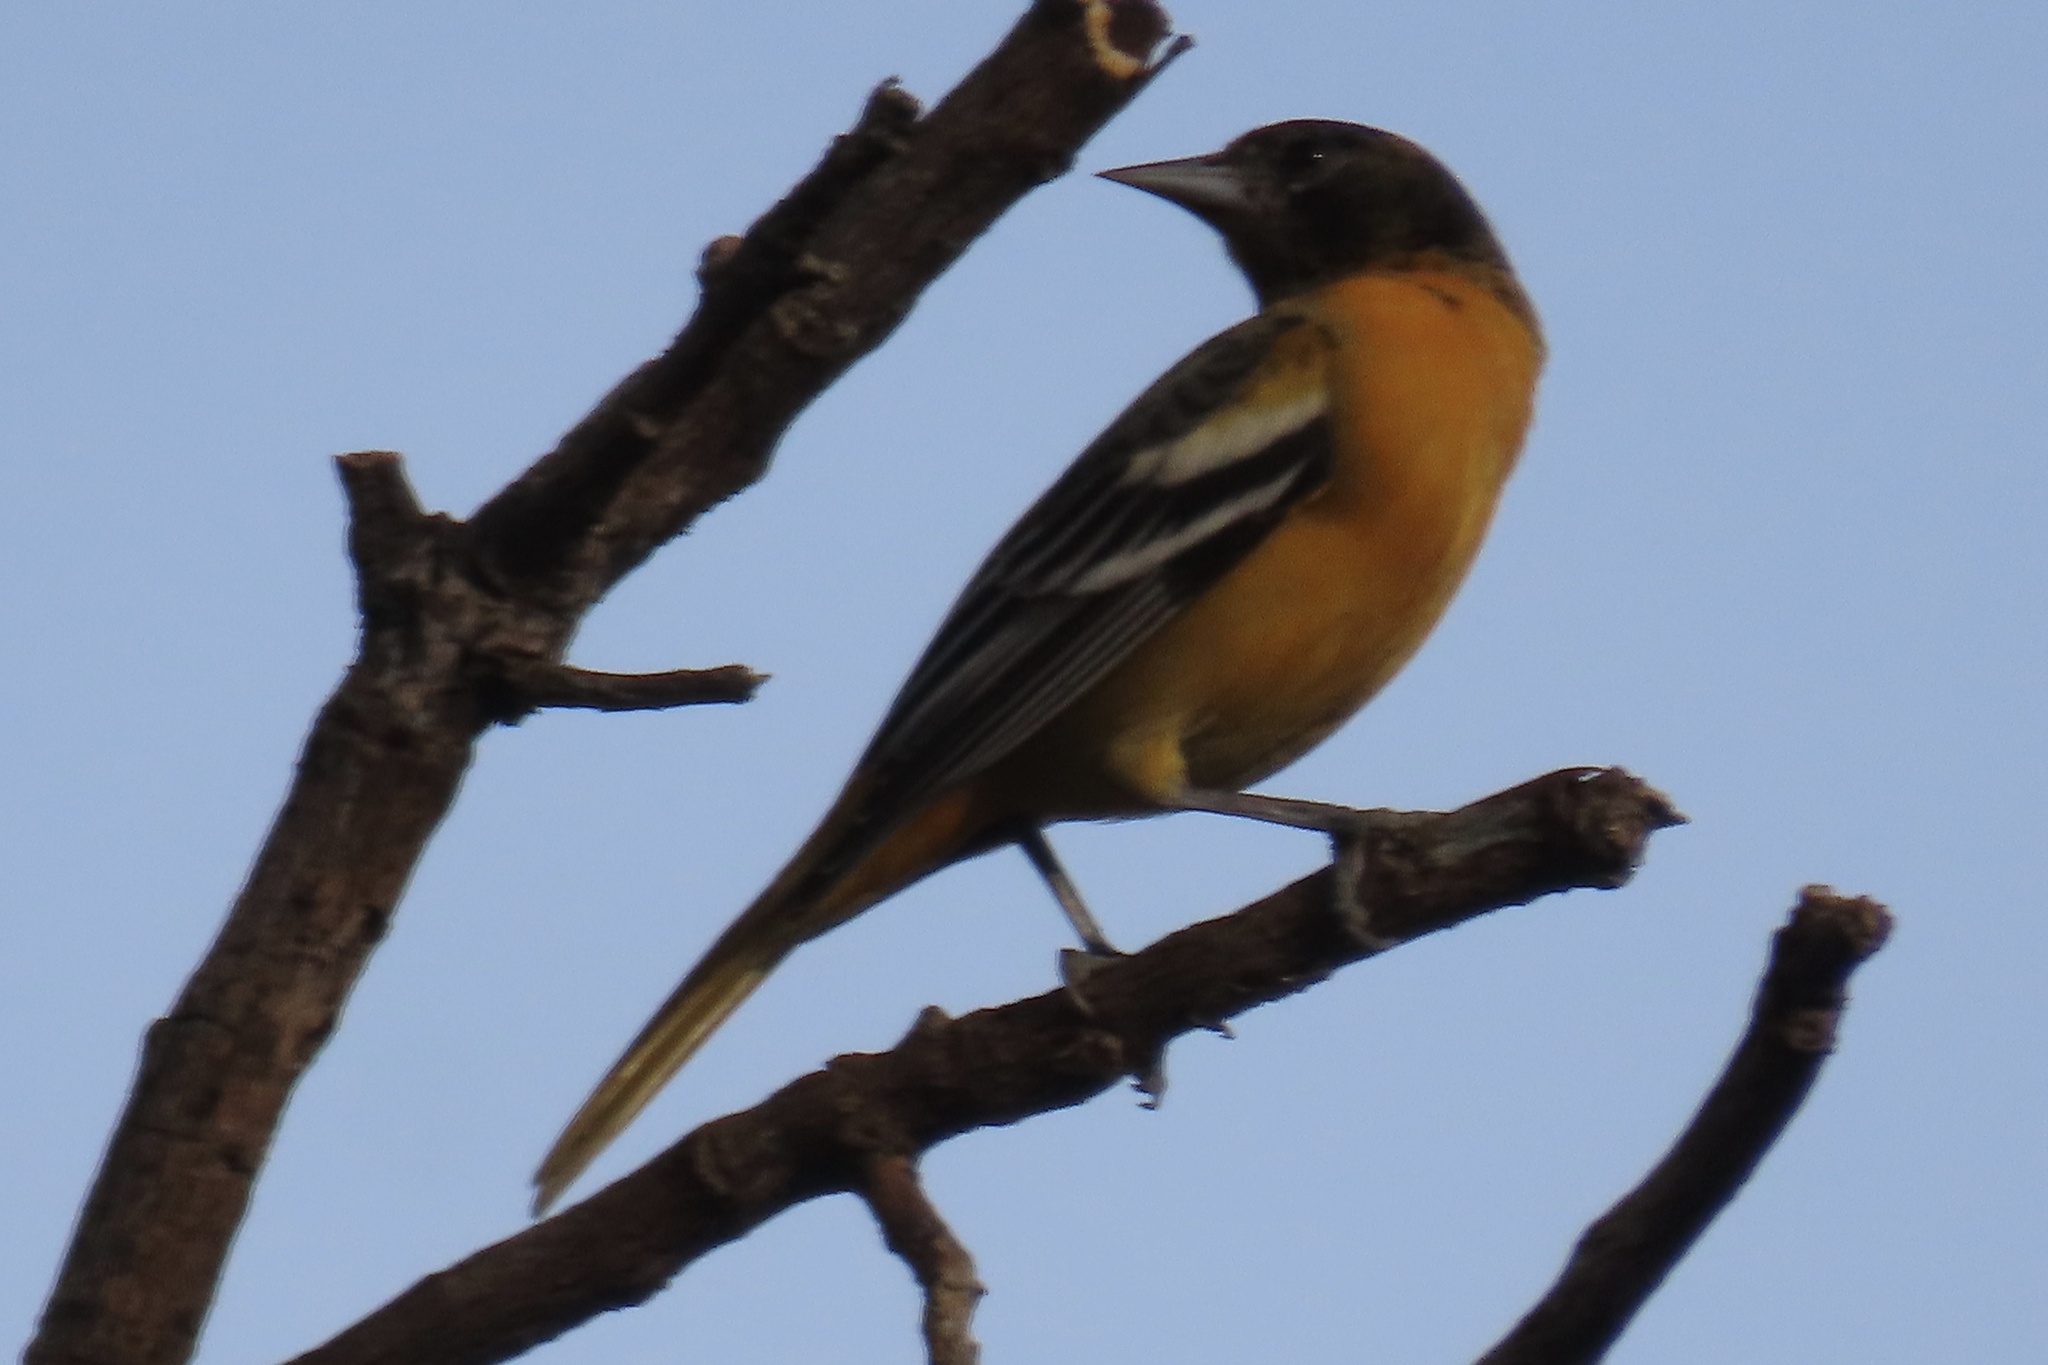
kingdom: Animalia
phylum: Chordata
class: Aves
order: Passeriformes
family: Icteridae
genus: Icterus
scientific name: Icterus galbula
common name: Baltimore oriole
